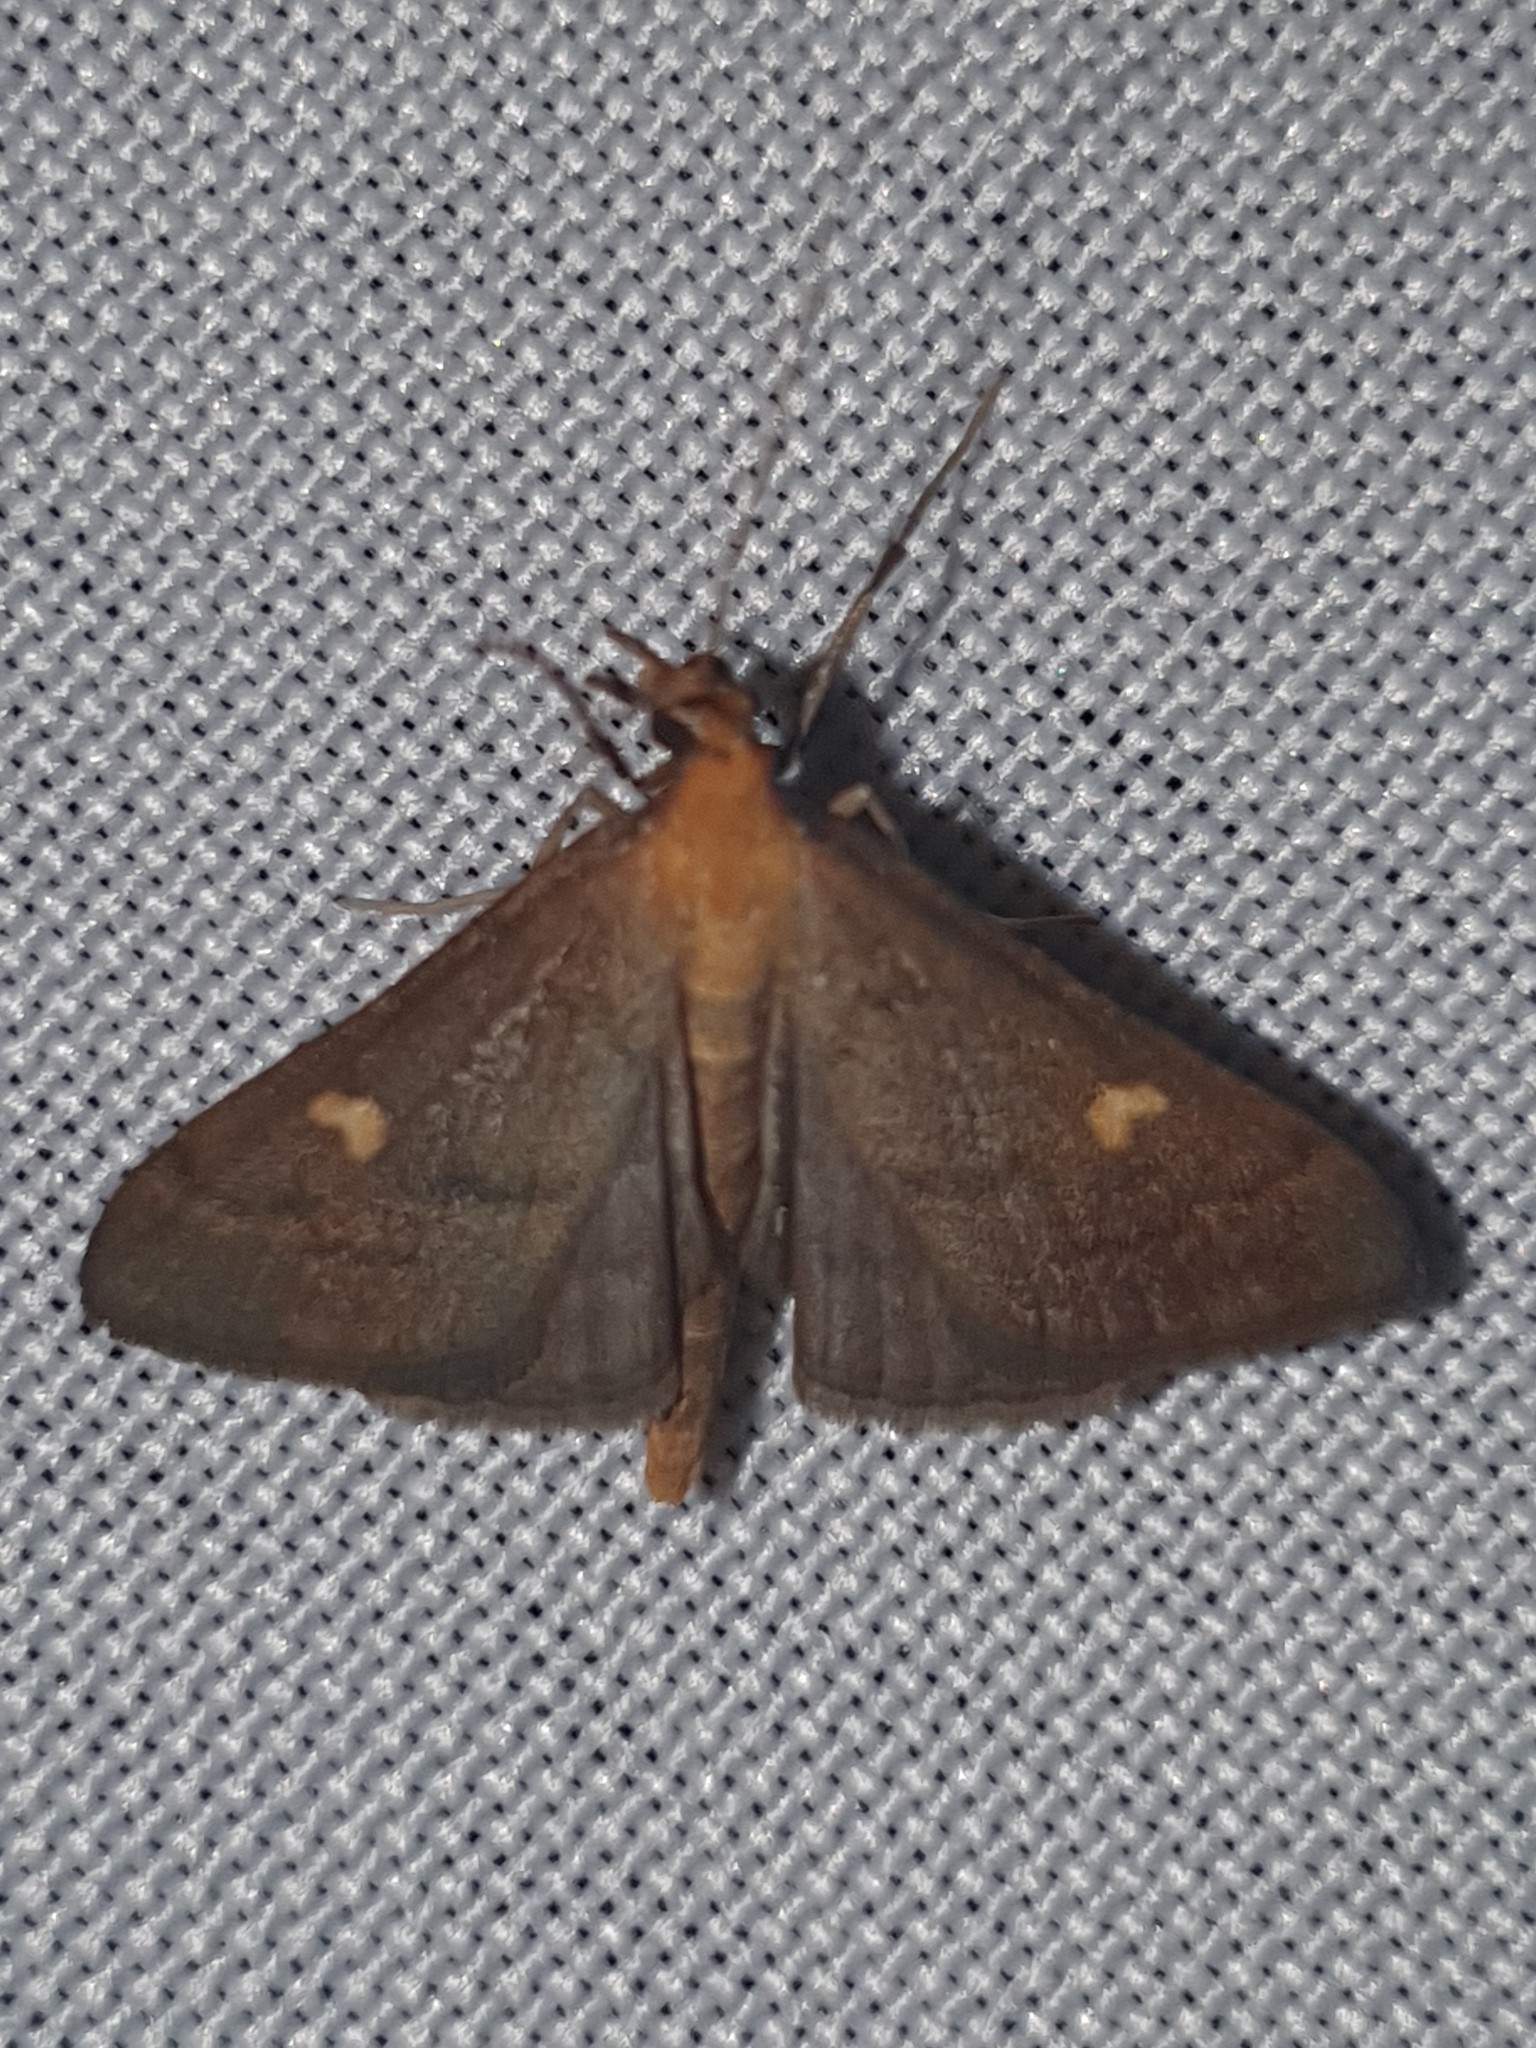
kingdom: Animalia
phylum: Arthropoda
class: Insecta
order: Lepidoptera
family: Crambidae
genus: Stenia
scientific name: Stenia Dolicharthria punctalis
